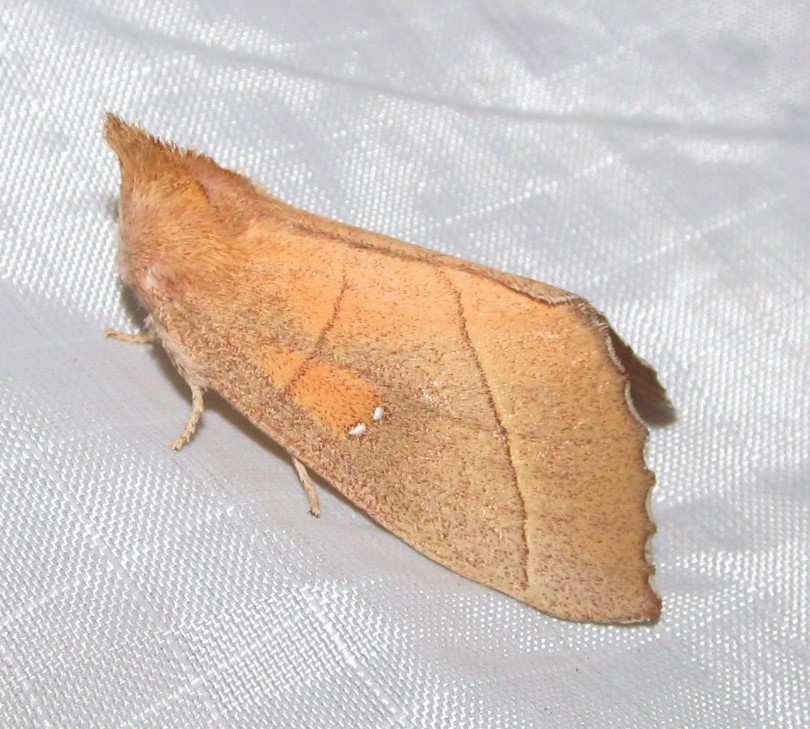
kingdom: Animalia
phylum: Arthropoda
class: Insecta
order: Lepidoptera
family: Notodontidae
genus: Nadata
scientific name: Nadata gibbosa
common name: White-dotted prominent
